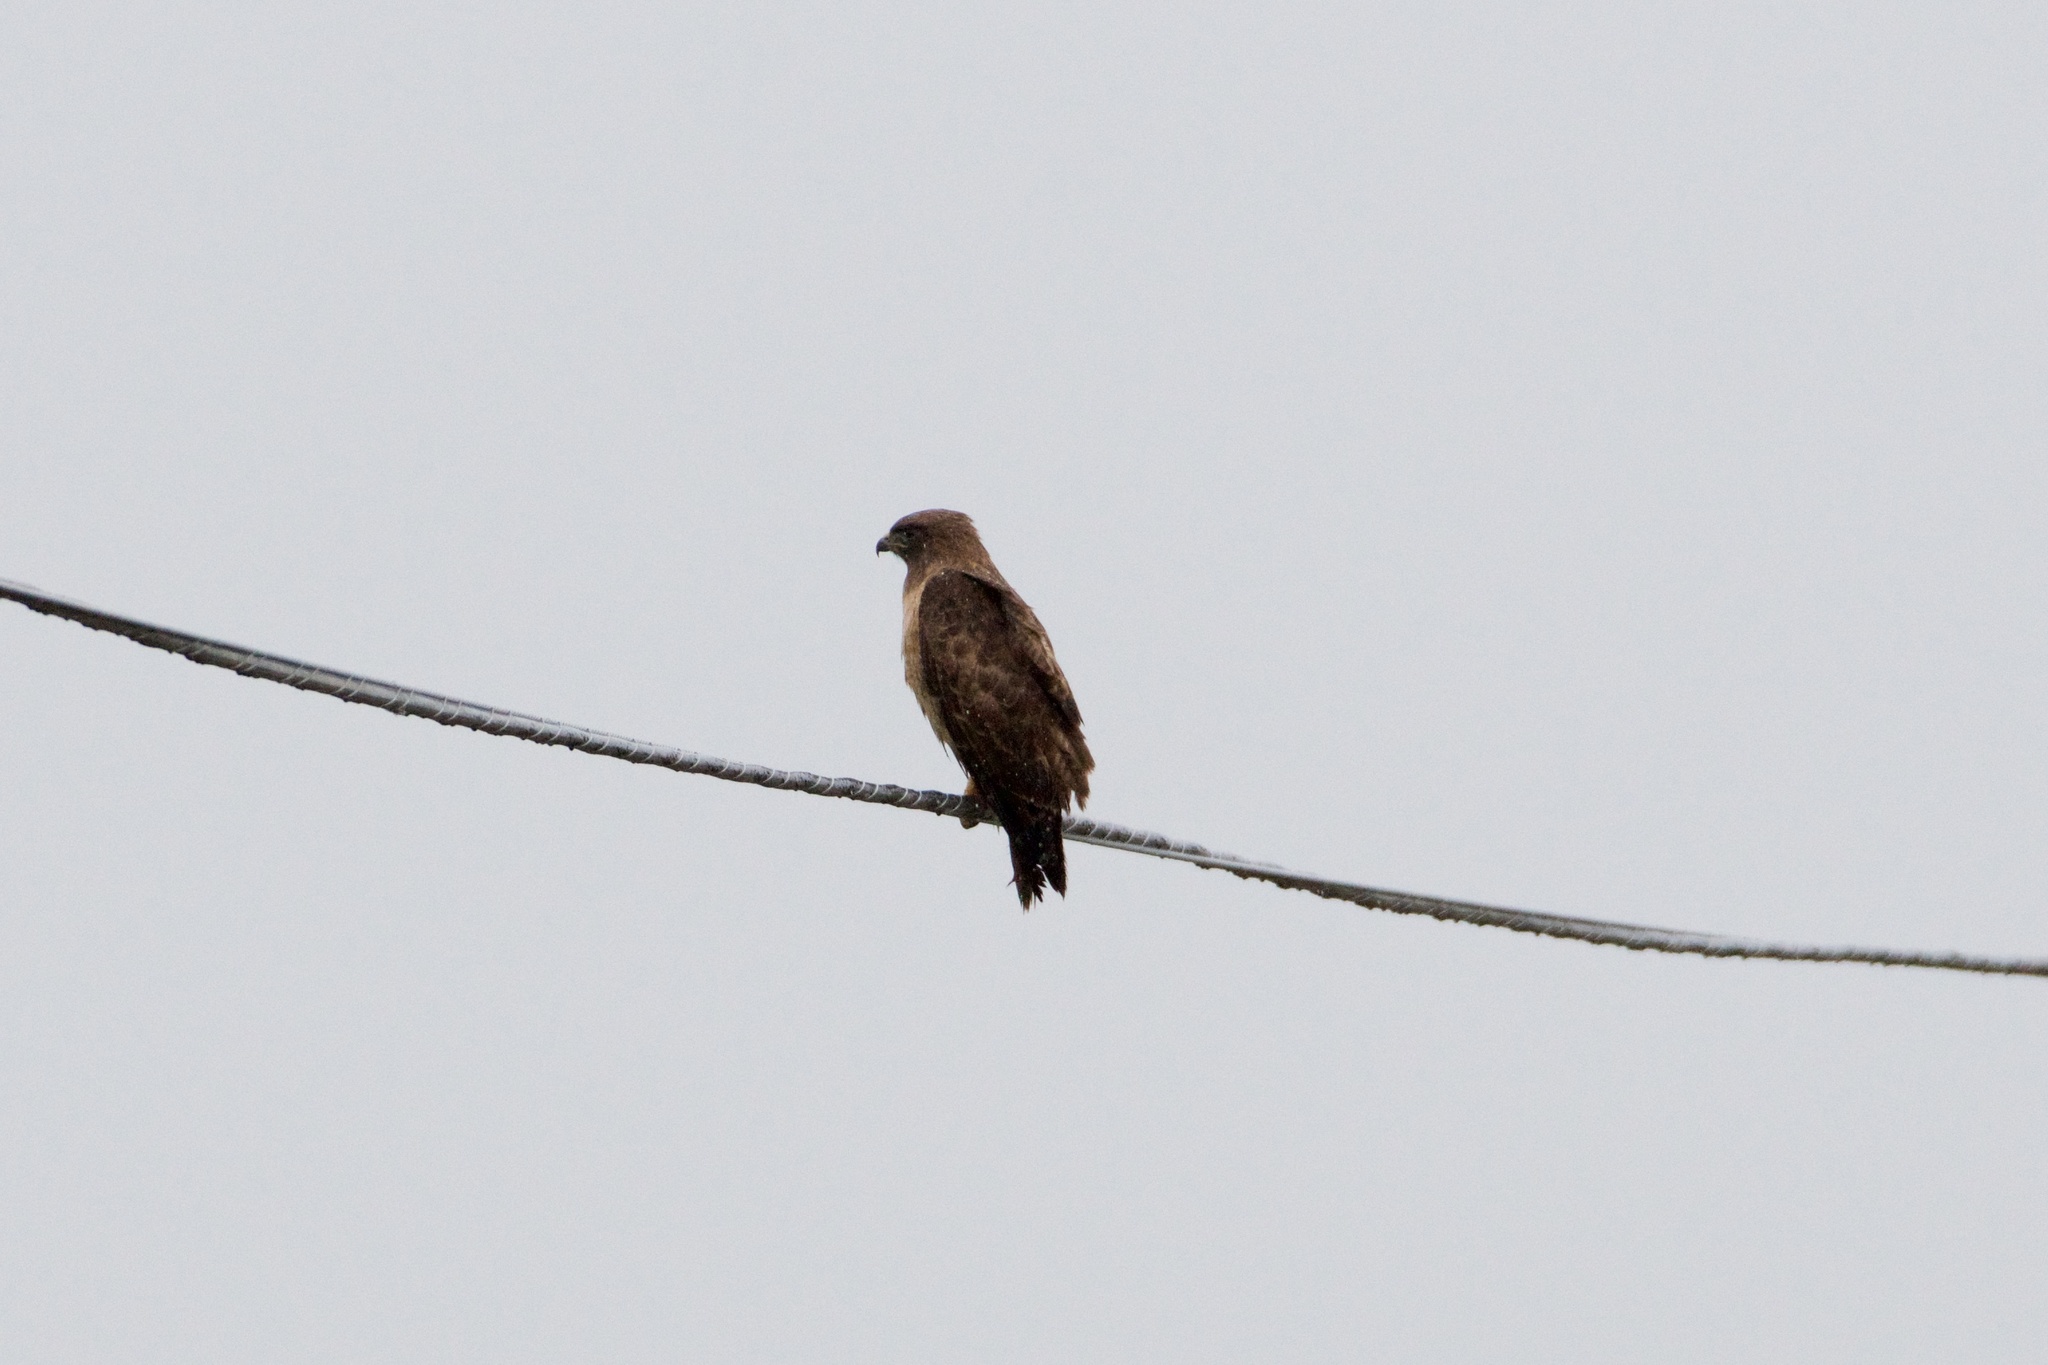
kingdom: Animalia
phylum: Chordata
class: Aves
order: Accipitriformes
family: Accipitridae
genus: Buteo
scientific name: Buteo jamaicensis
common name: Red-tailed hawk
